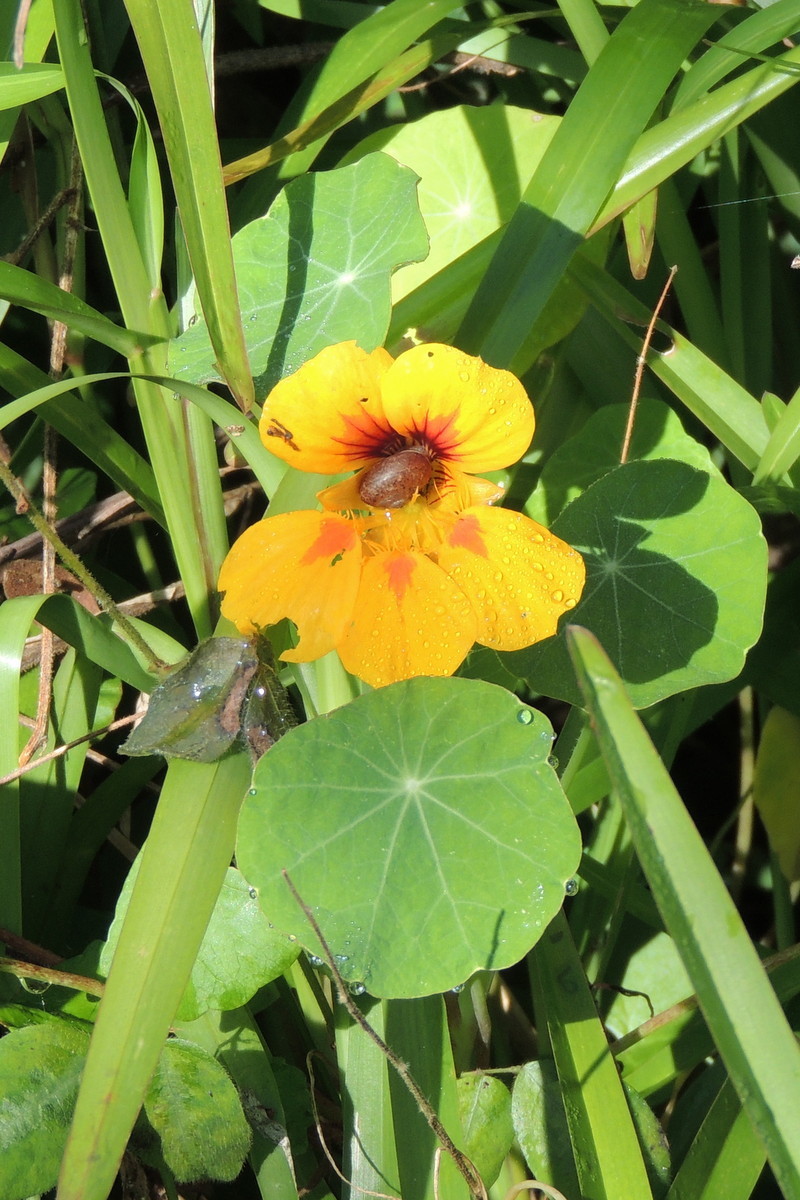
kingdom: Plantae
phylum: Tracheophyta
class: Magnoliopsida
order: Brassicales
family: Tropaeolaceae
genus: Tropaeolum
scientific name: Tropaeolum majus
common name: Nasturtium
